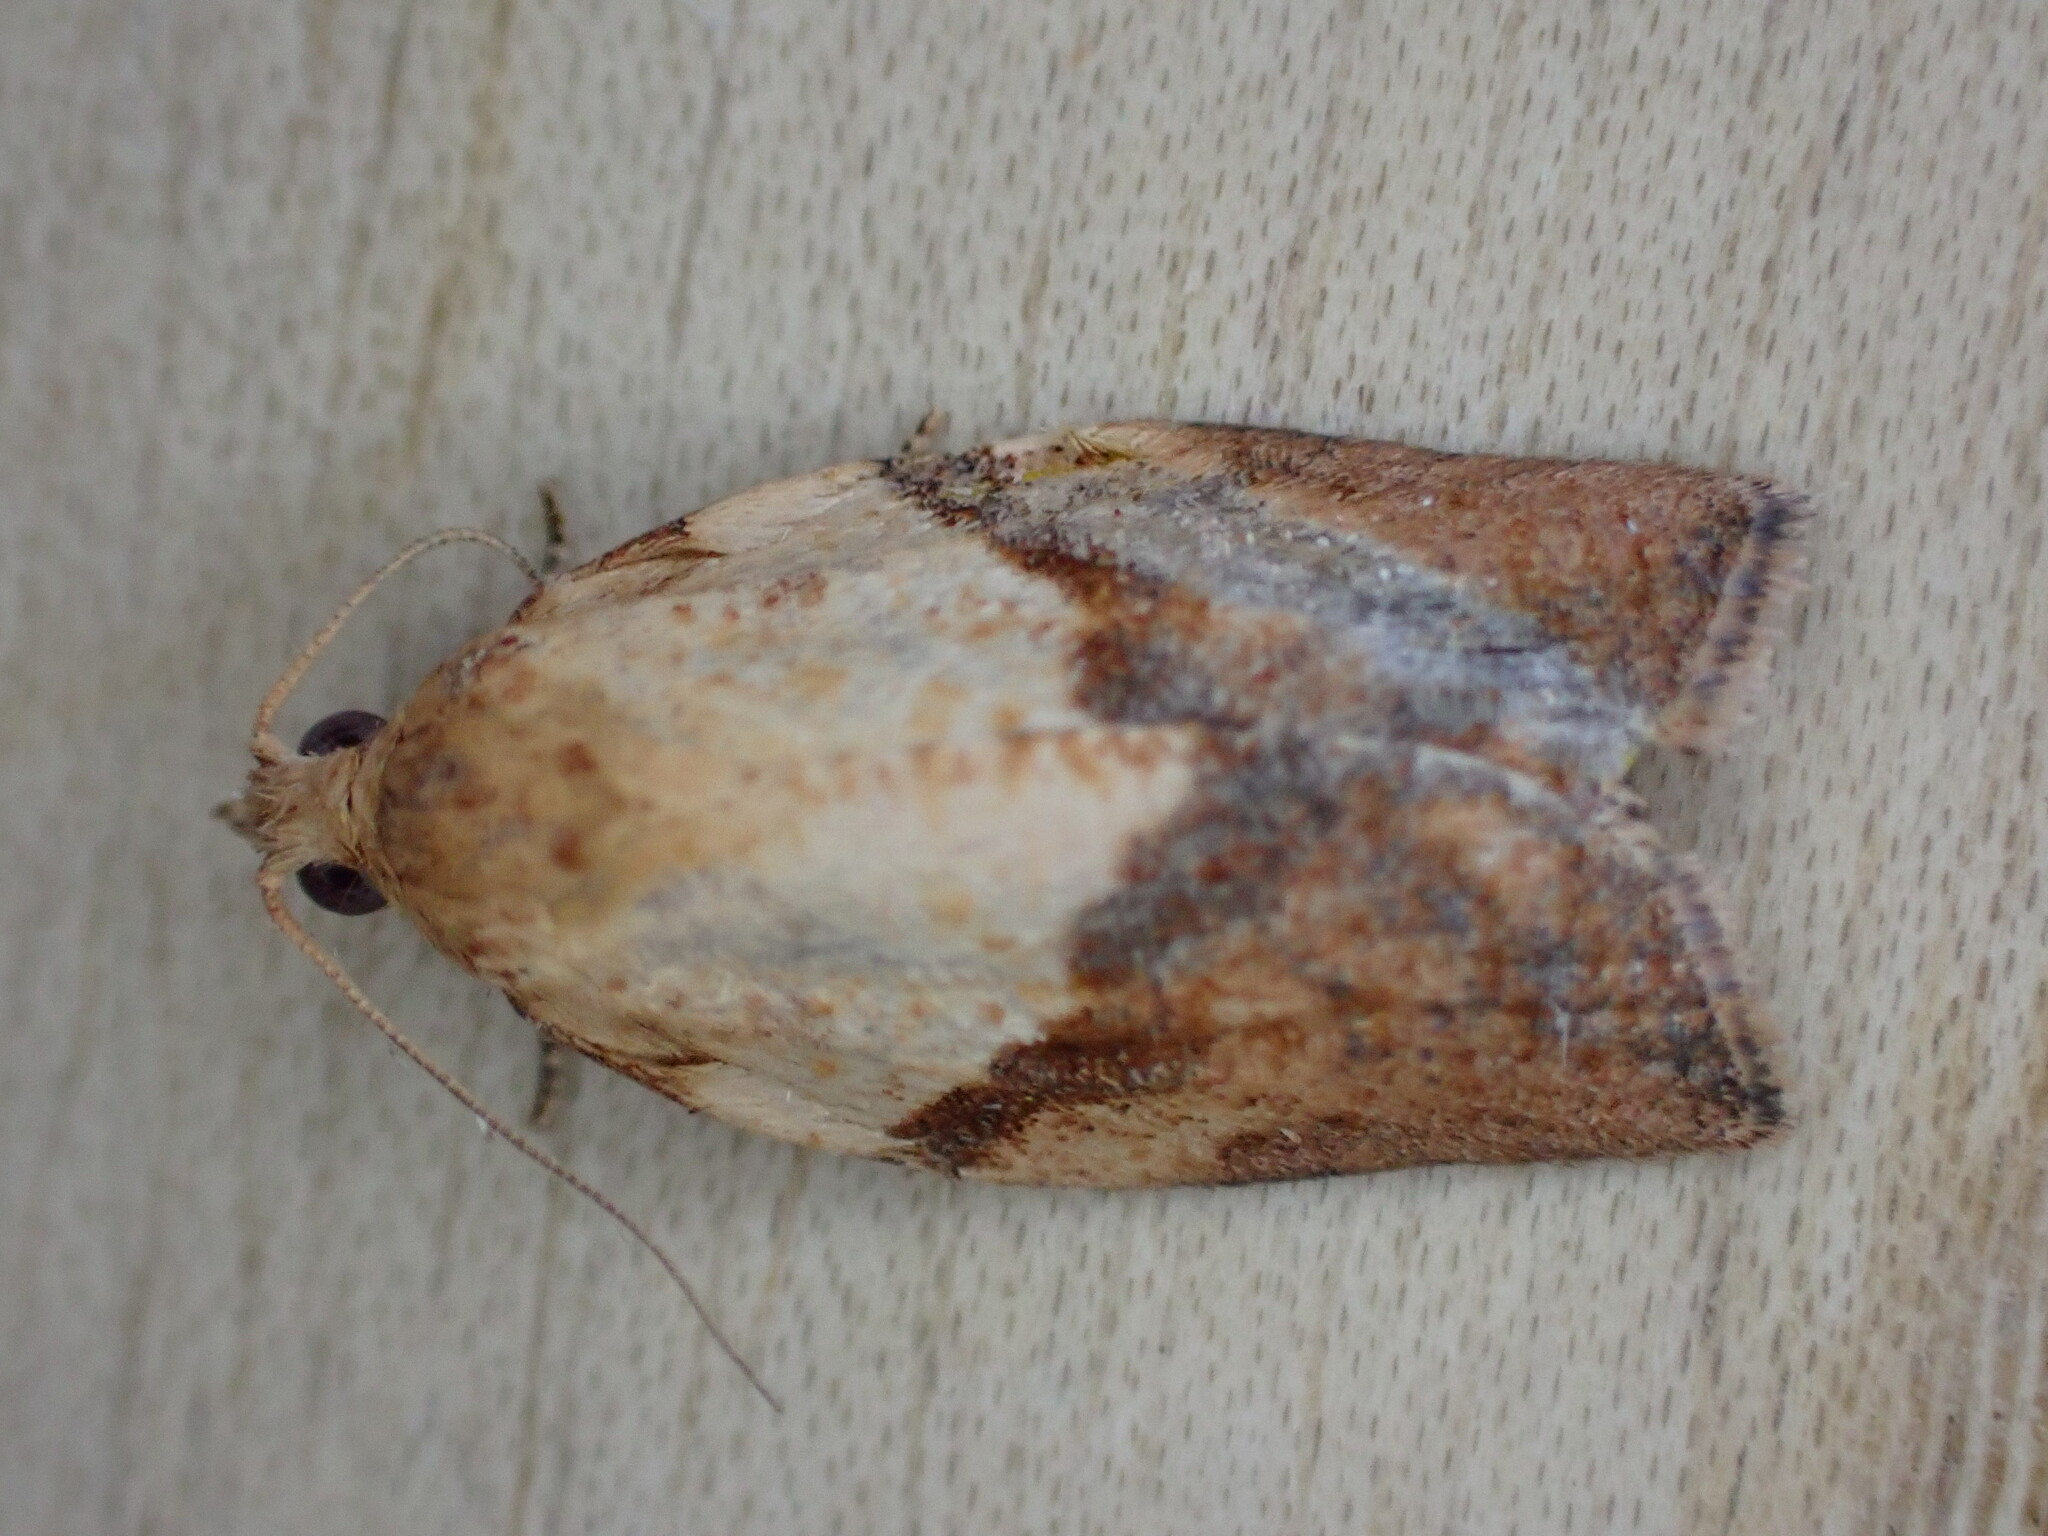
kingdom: Animalia
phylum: Arthropoda
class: Insecta
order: Lepidoptera
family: Tortricidae
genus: Epiphyas
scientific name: Epiphyas postvittana
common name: Light brown apple moth
